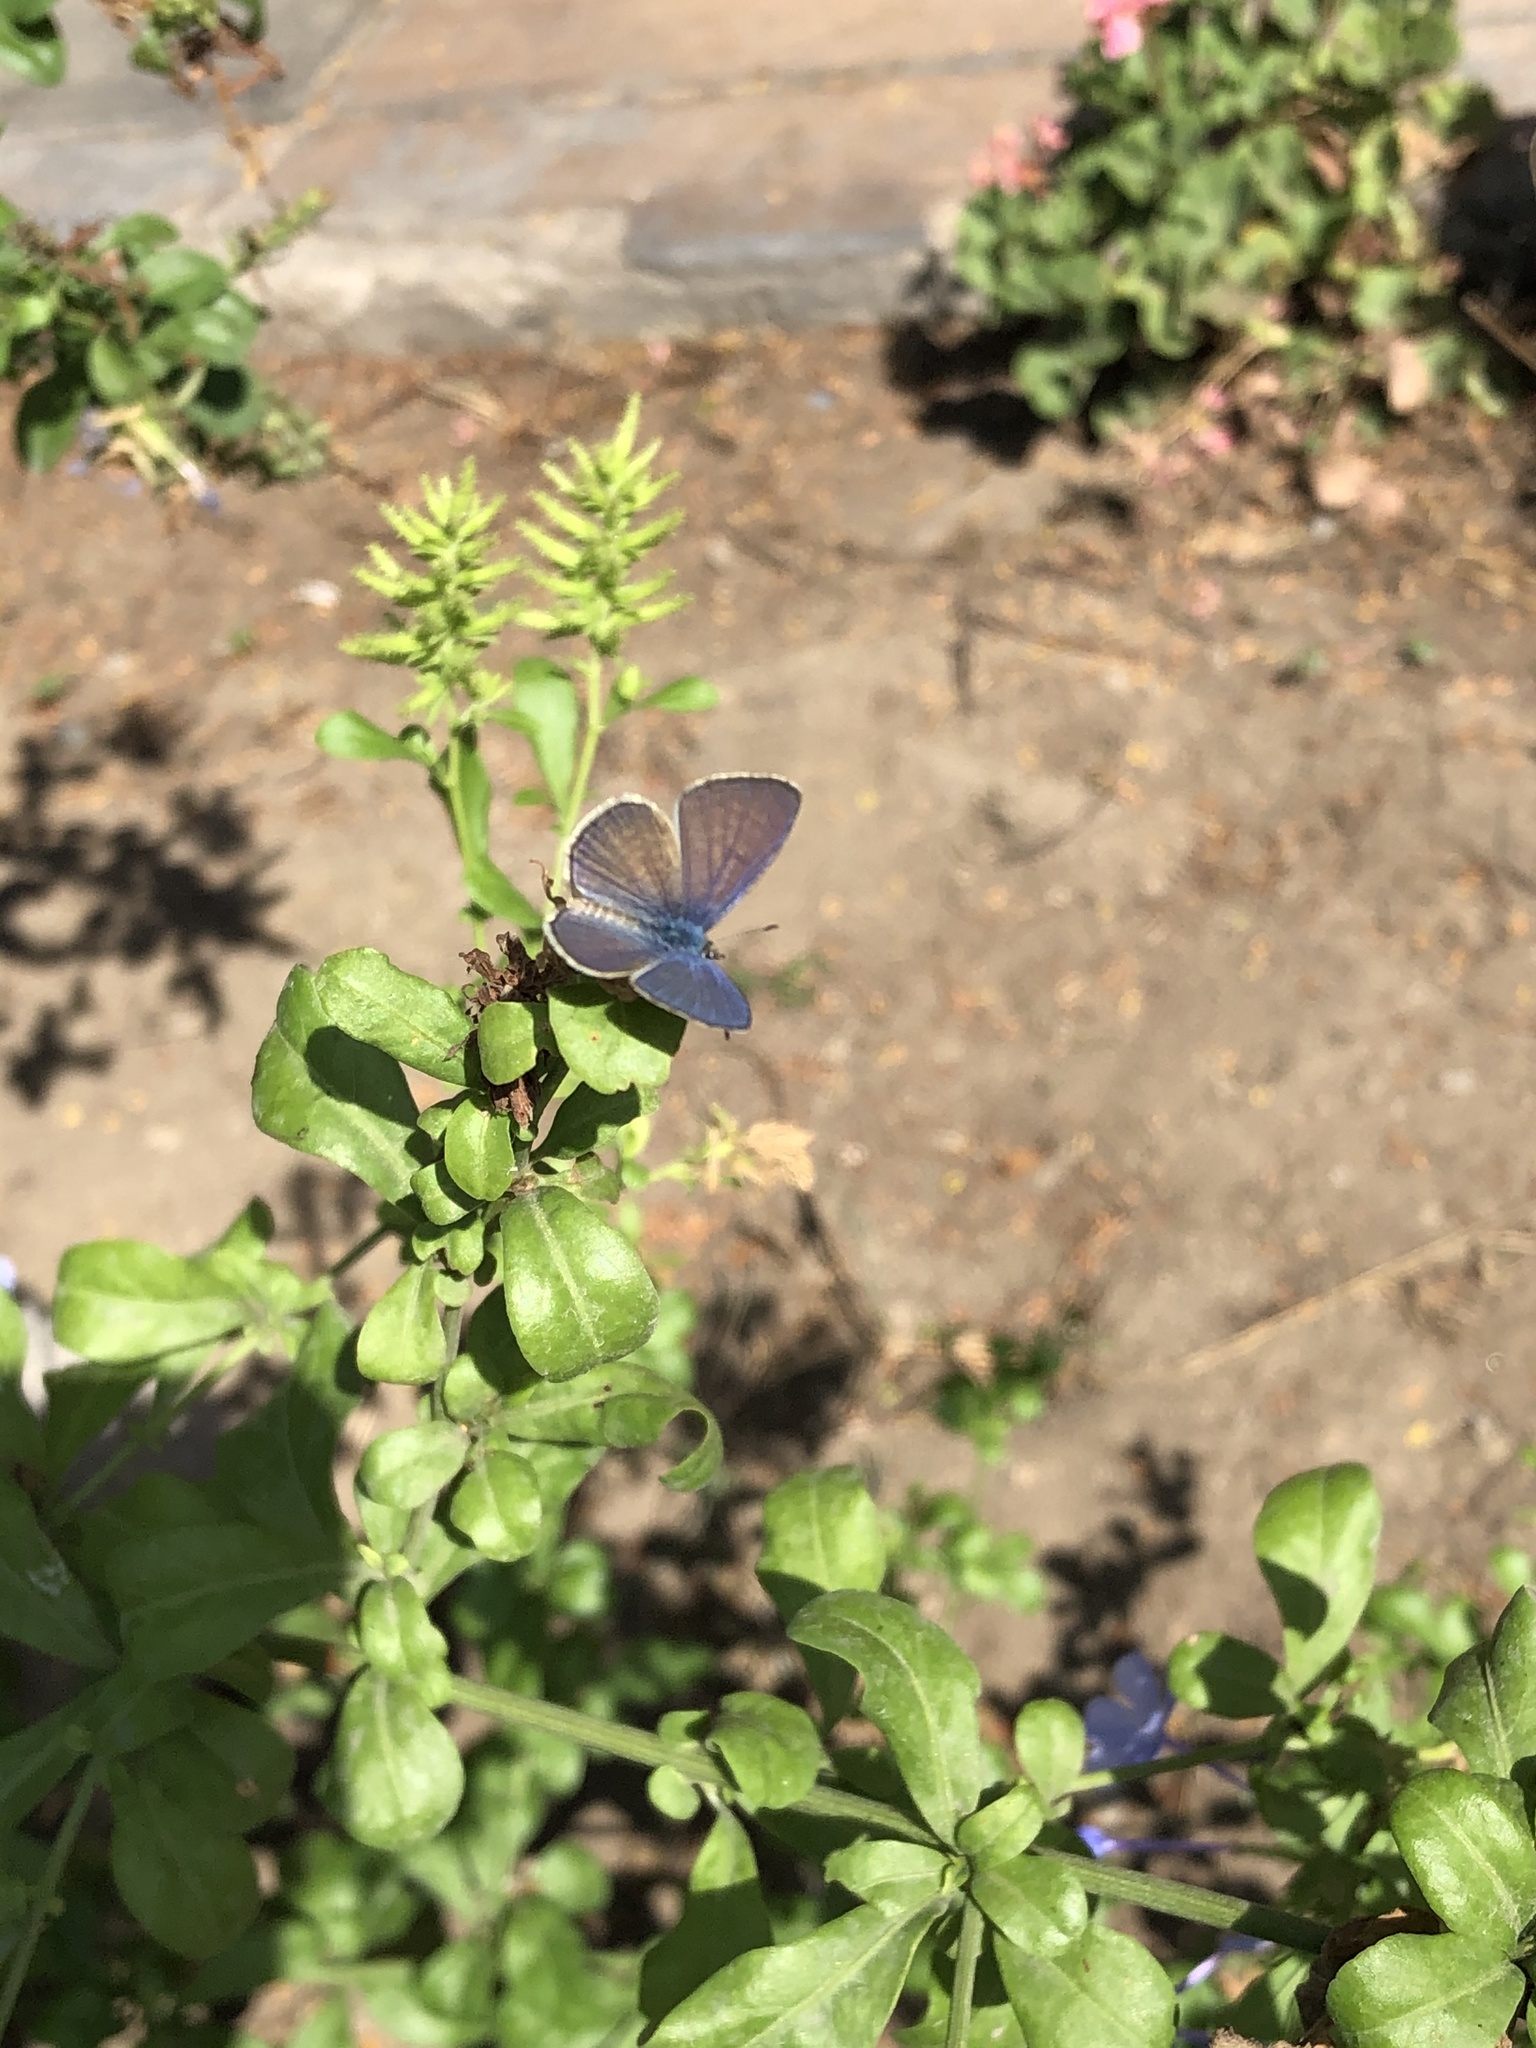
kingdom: Animalia
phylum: Arthropoda
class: Insecta
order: Lepidoptera
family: Lycaenidae
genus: Hemiargus
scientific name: Hemiargus ramon
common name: Ramon blue
